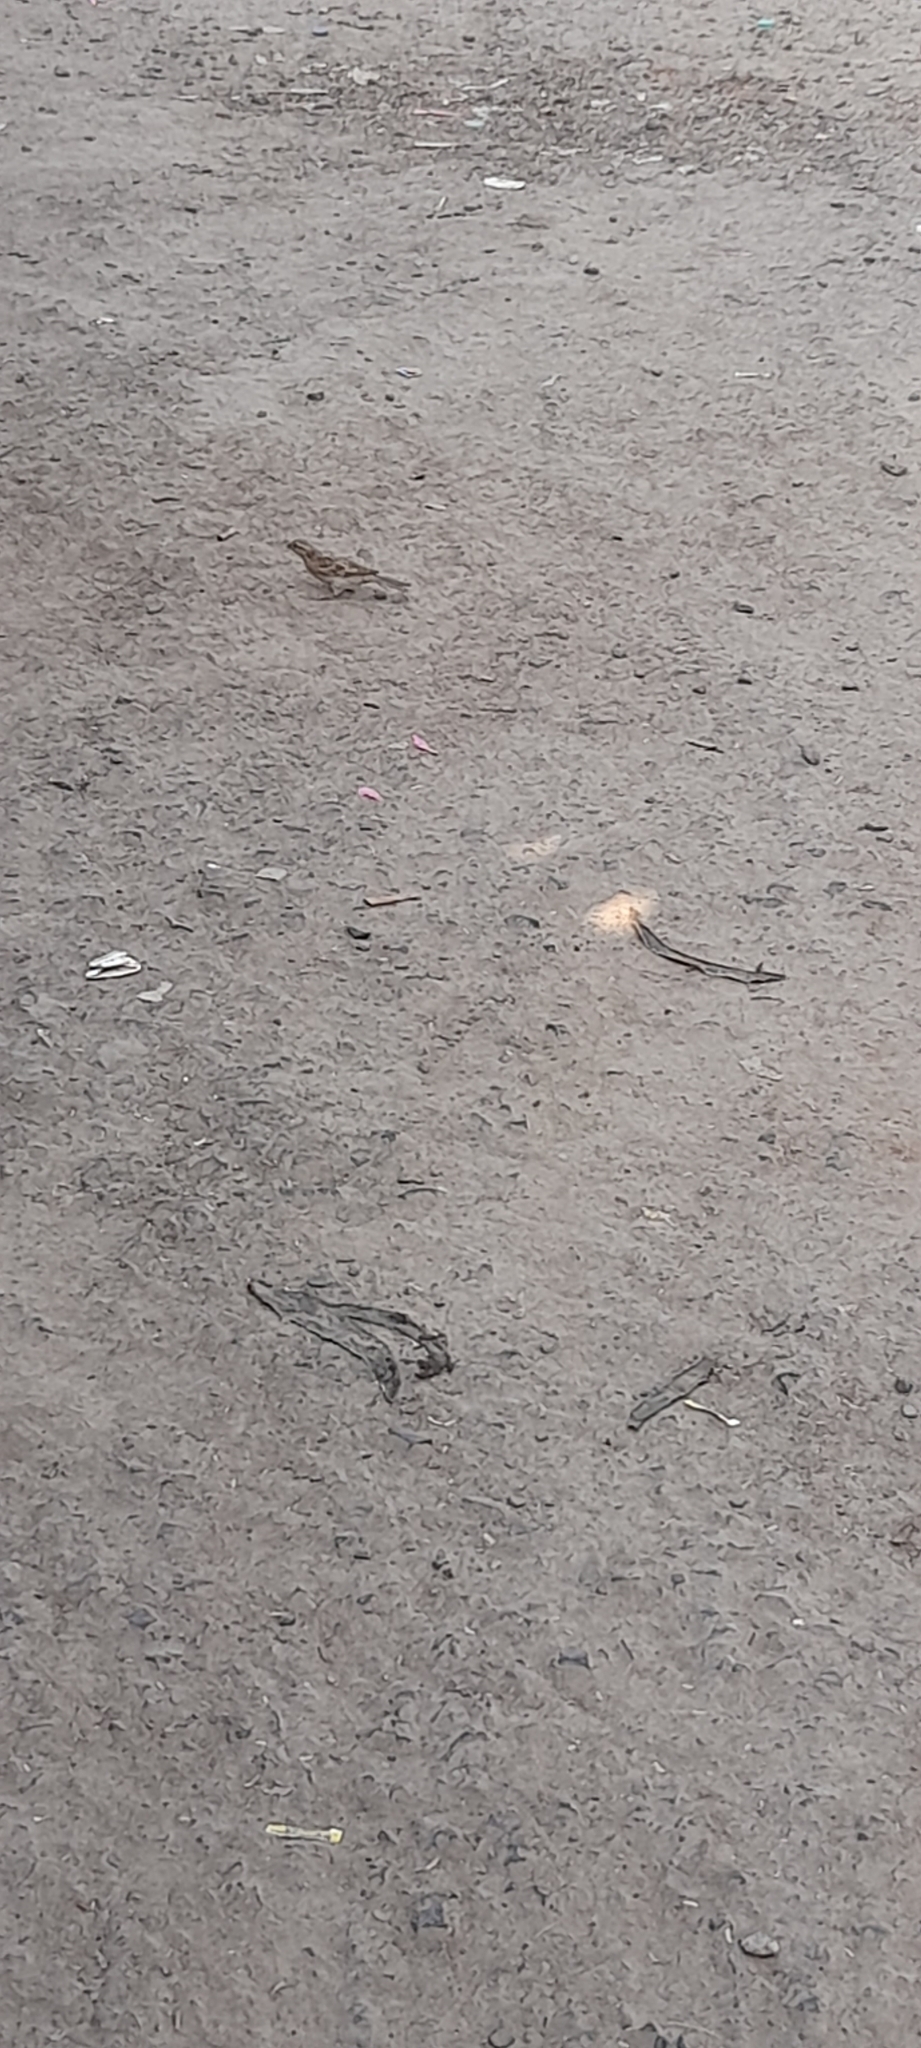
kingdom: Animalia
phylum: Chordata
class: Aves
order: Passeriformes
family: Passeridae
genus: Passer
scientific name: Passer domesticus
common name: House sparrow
